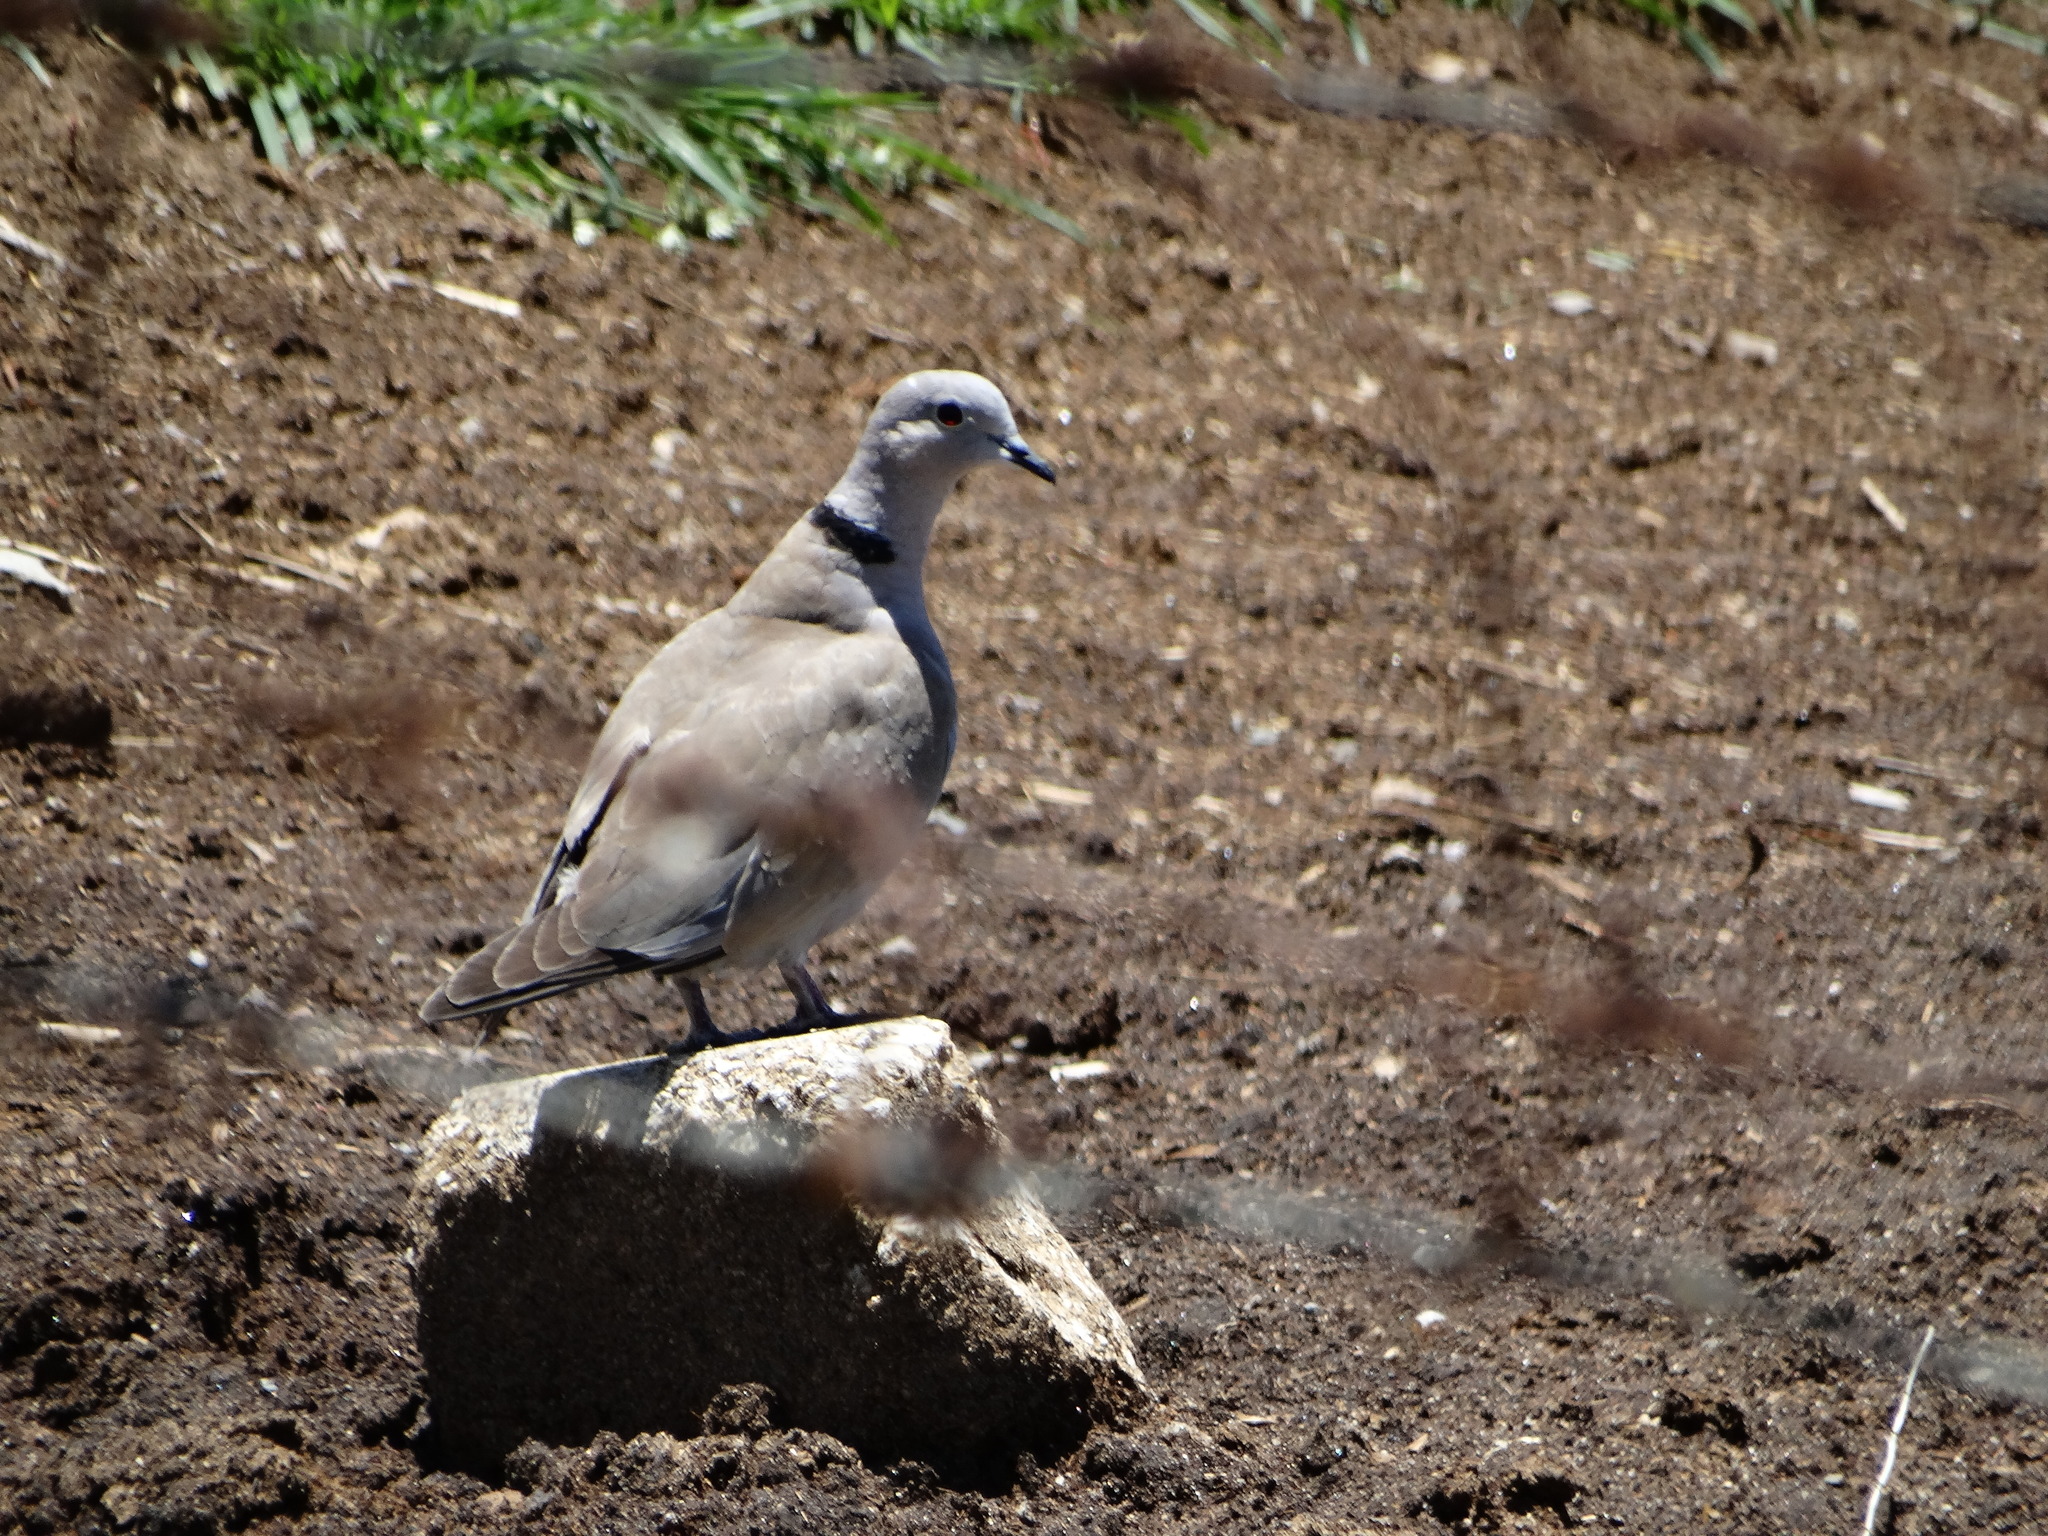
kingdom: Animalia
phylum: Chordata
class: Aves
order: Columbiformes
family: Columbidae
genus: Streptopelia
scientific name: Streptopelia decaocto
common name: Eurasian collared dove
